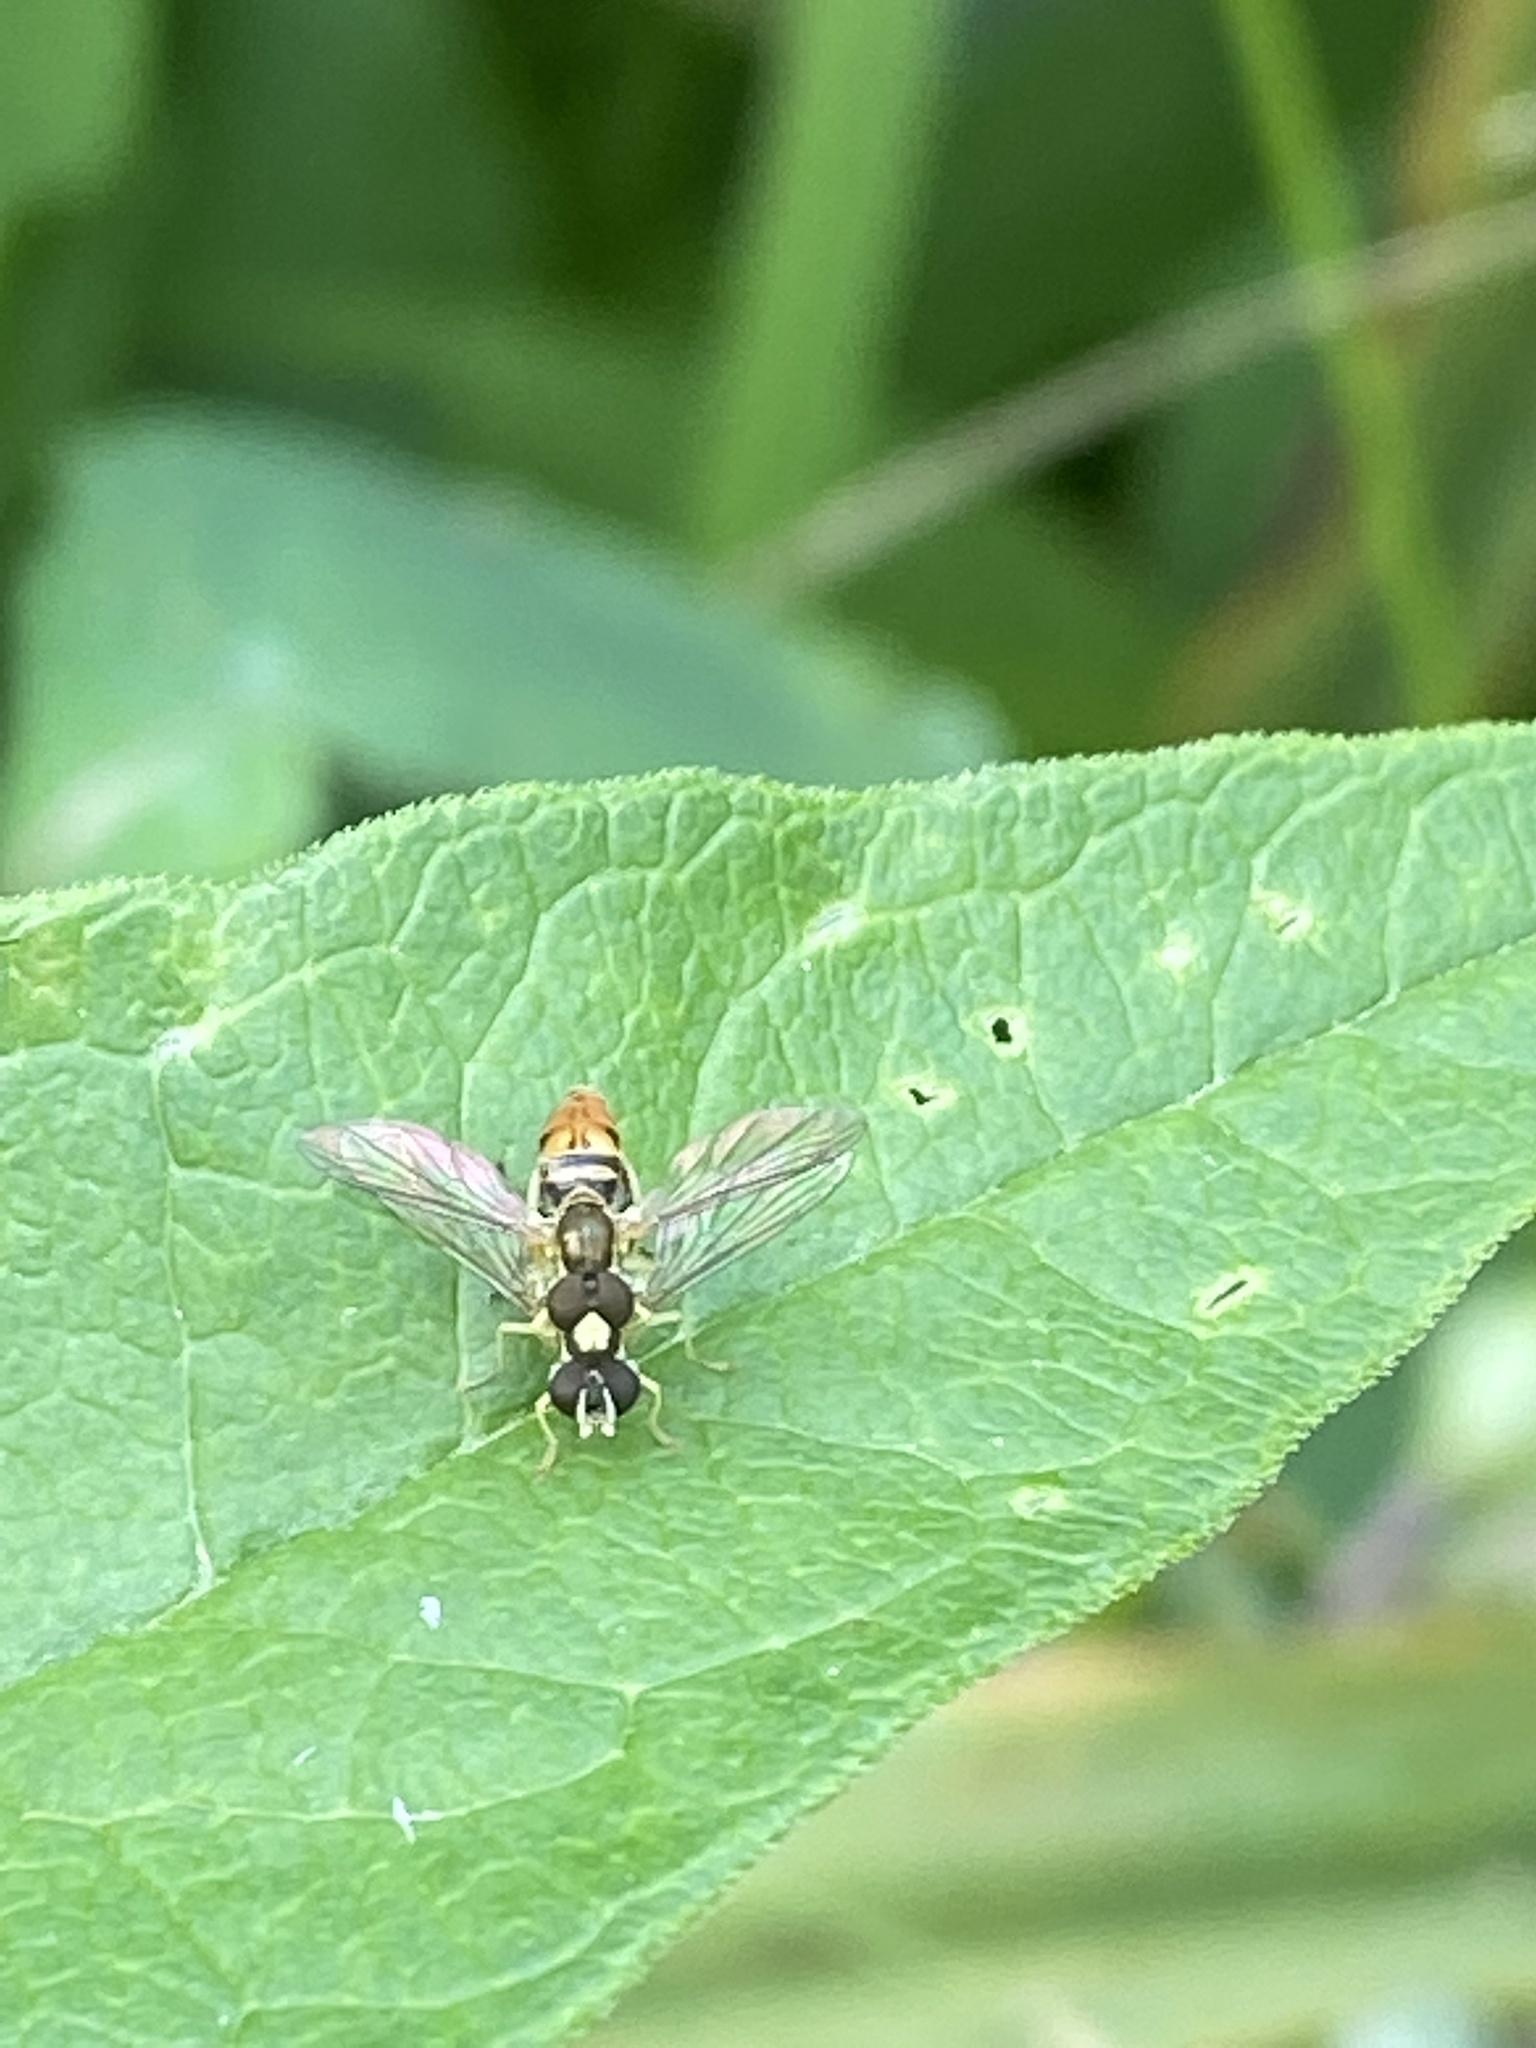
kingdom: Animalia
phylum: Arthropoda
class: Insecta
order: Diptera
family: Syrphidae
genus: Toxomerus
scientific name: Toxomerus marginatus
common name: Syrphid fly
